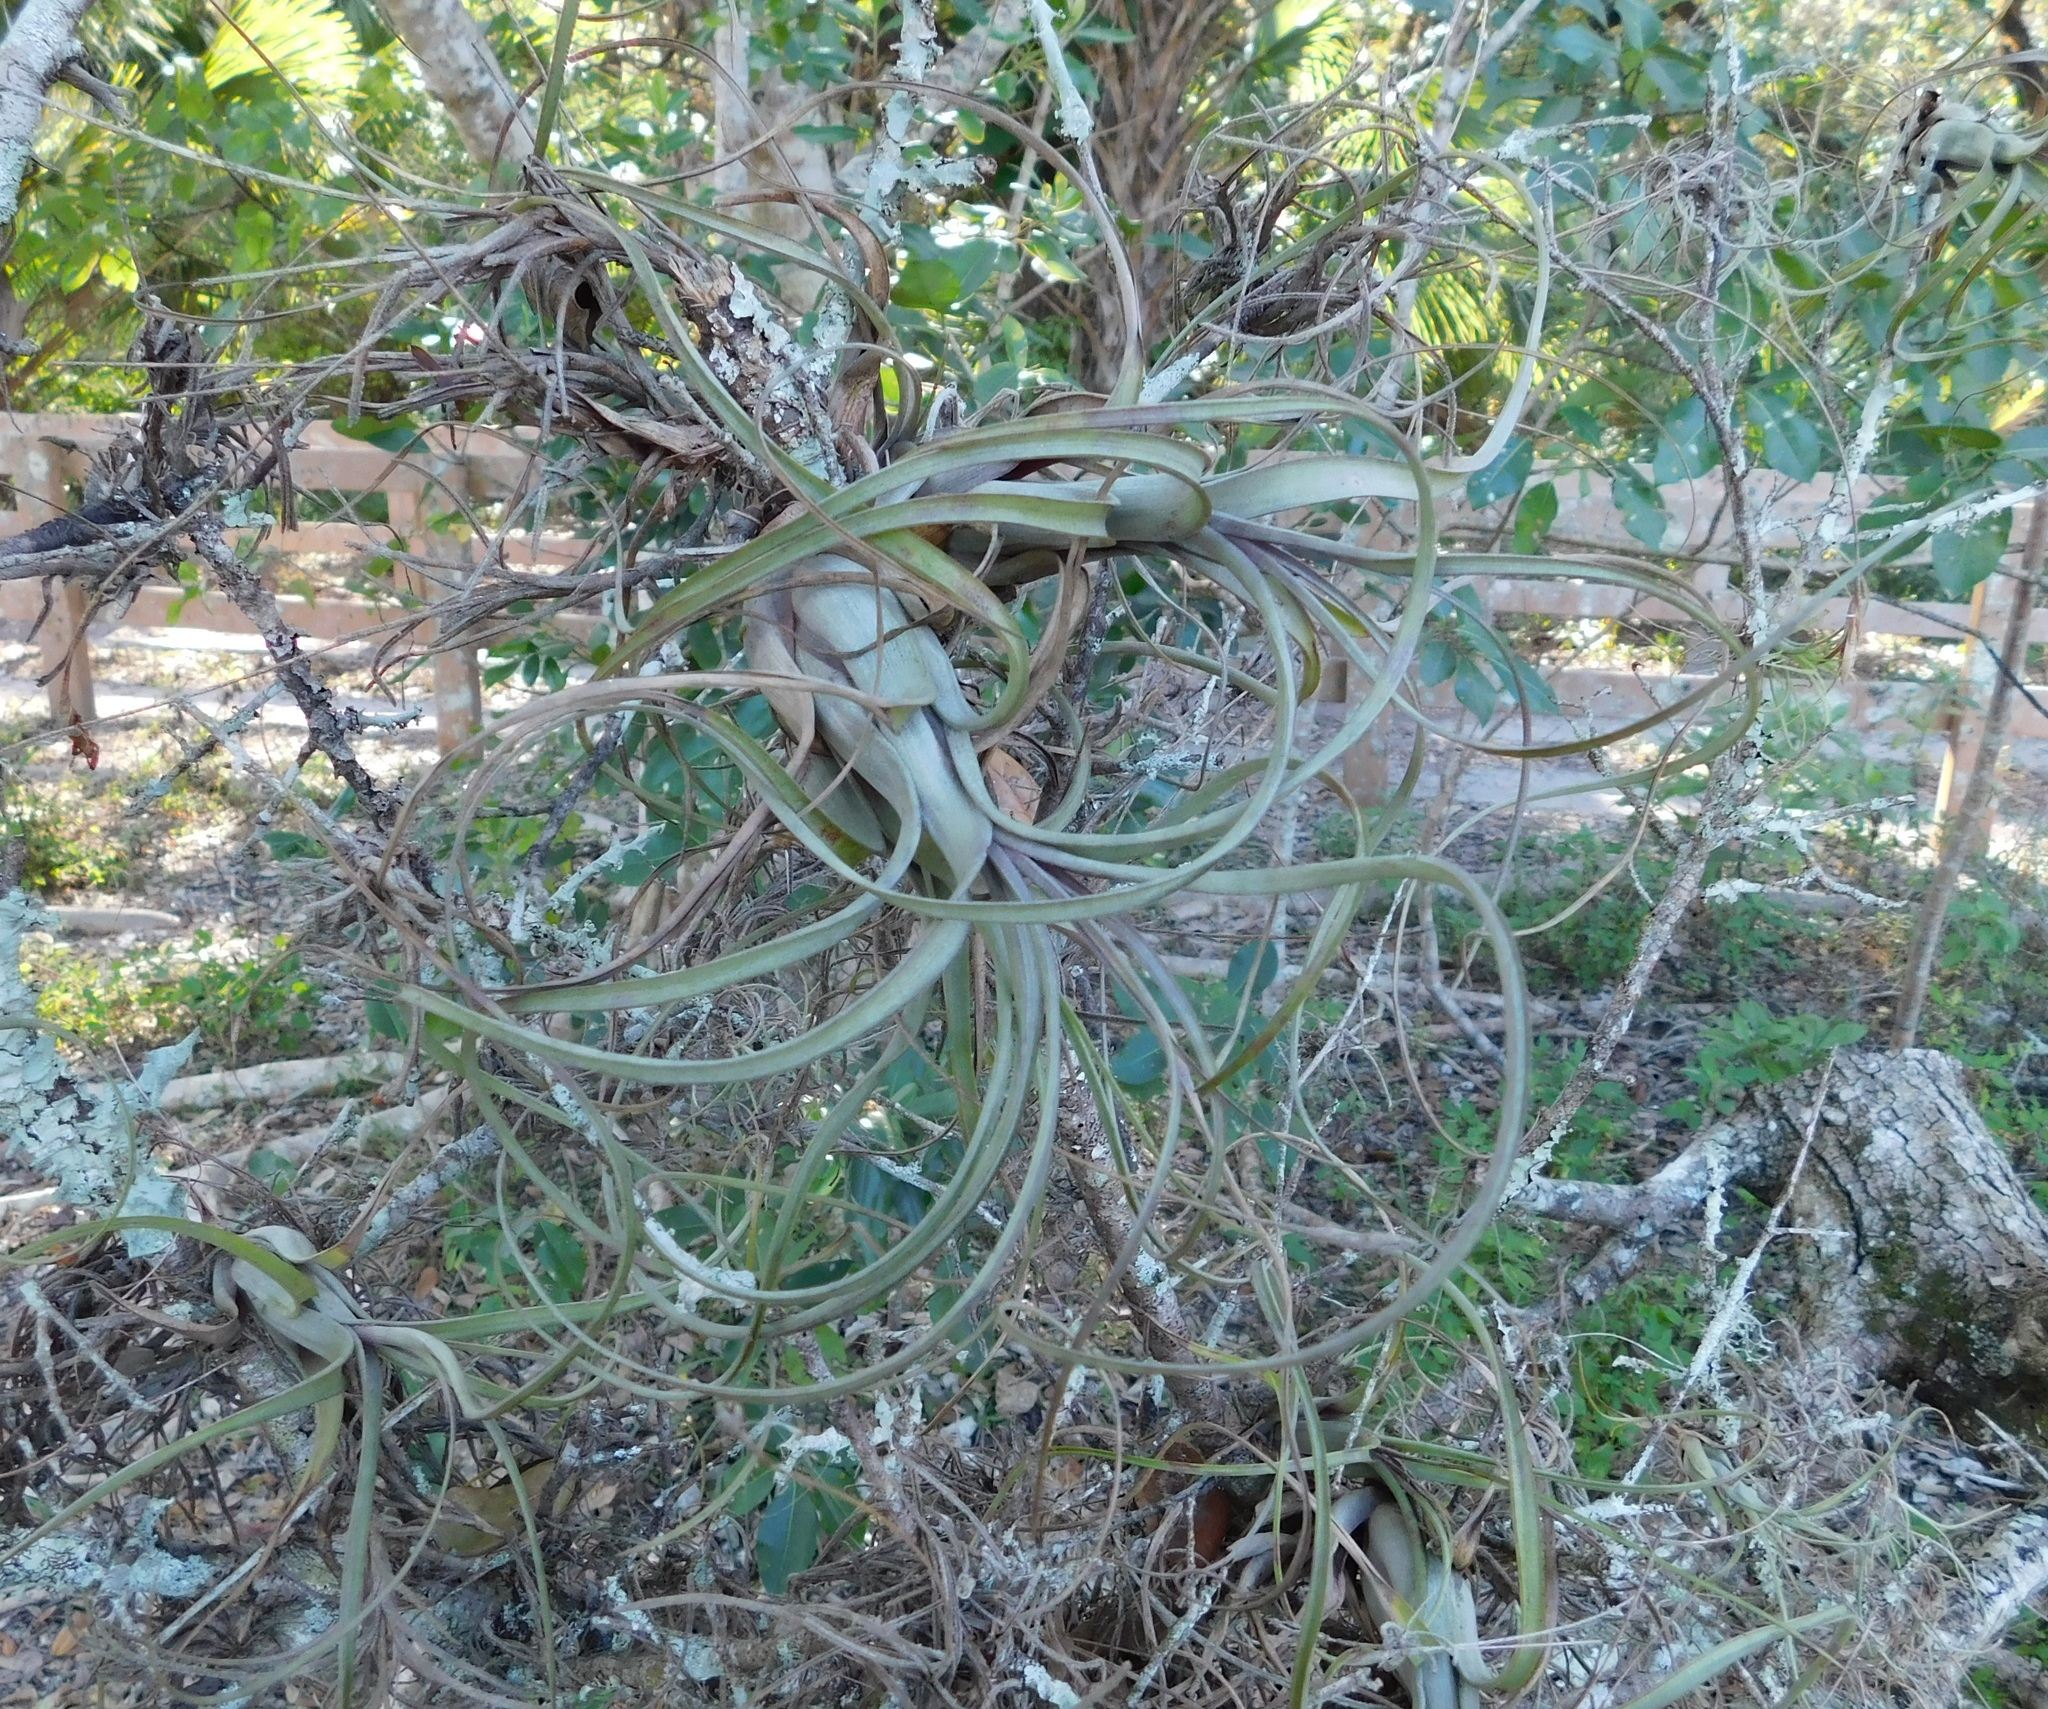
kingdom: Plantae
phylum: Tracheophyta
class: Liliopsida
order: Poales
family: Bromeliaceae
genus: Tillandsia
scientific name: Tillandsia balbisiana
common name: Northern needleleaf
